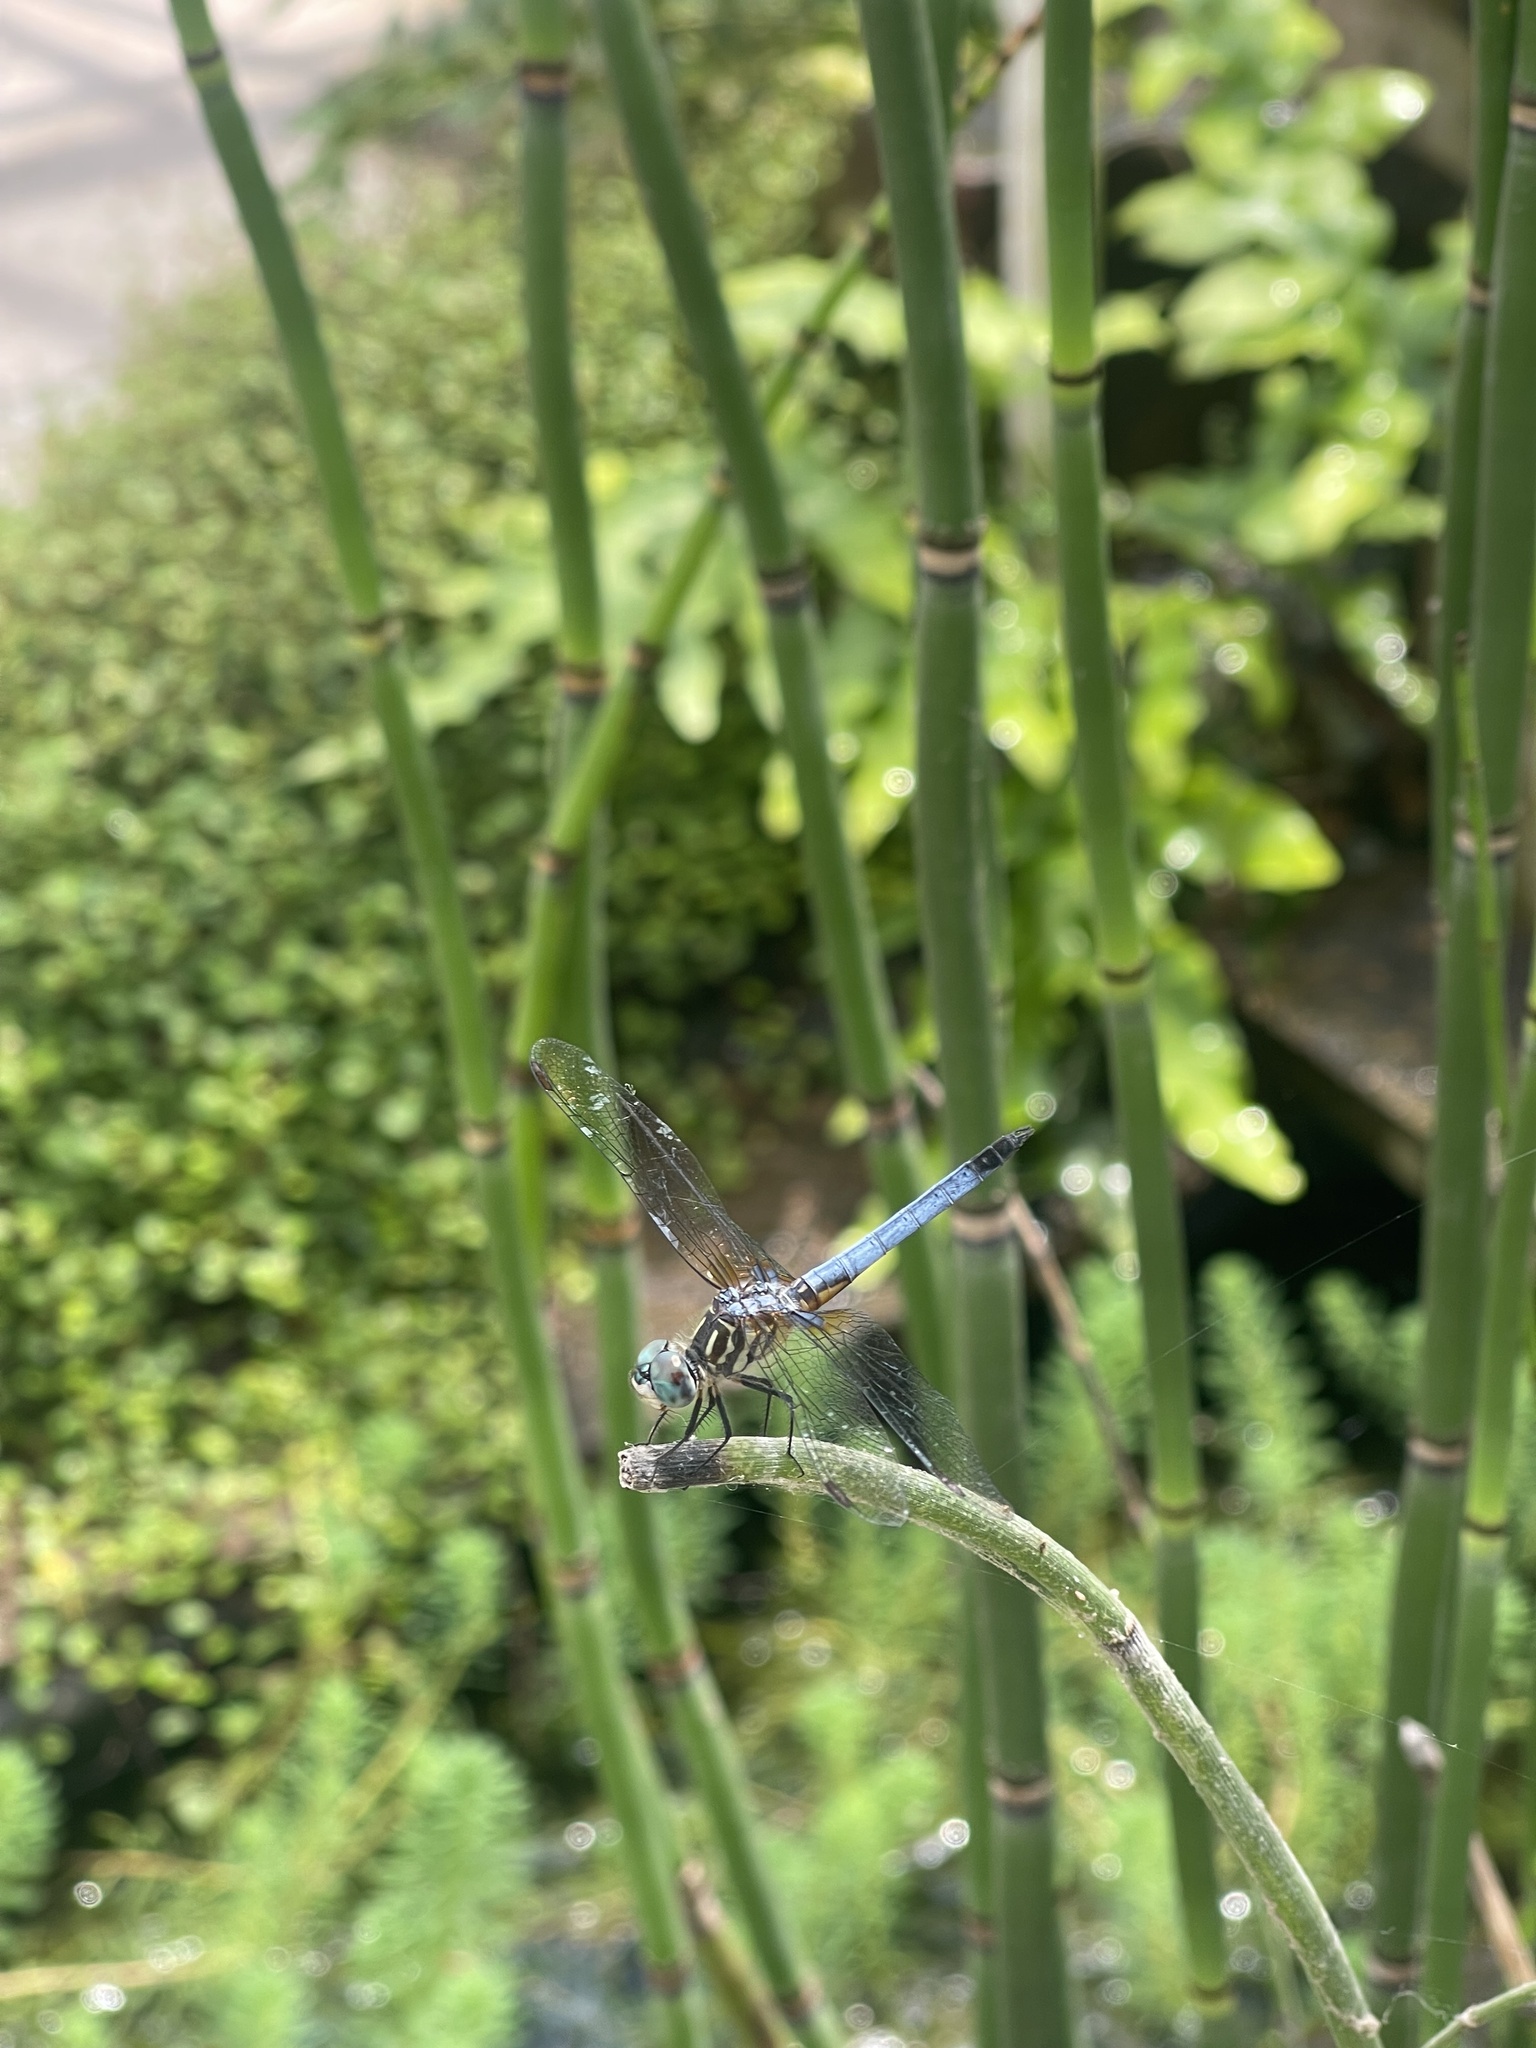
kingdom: Animalia
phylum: Arthropoda
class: Insecta
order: Odonata
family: Libellulidae
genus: Pachydiplax
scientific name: Pachydiplax longipennis
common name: Blue dasher
